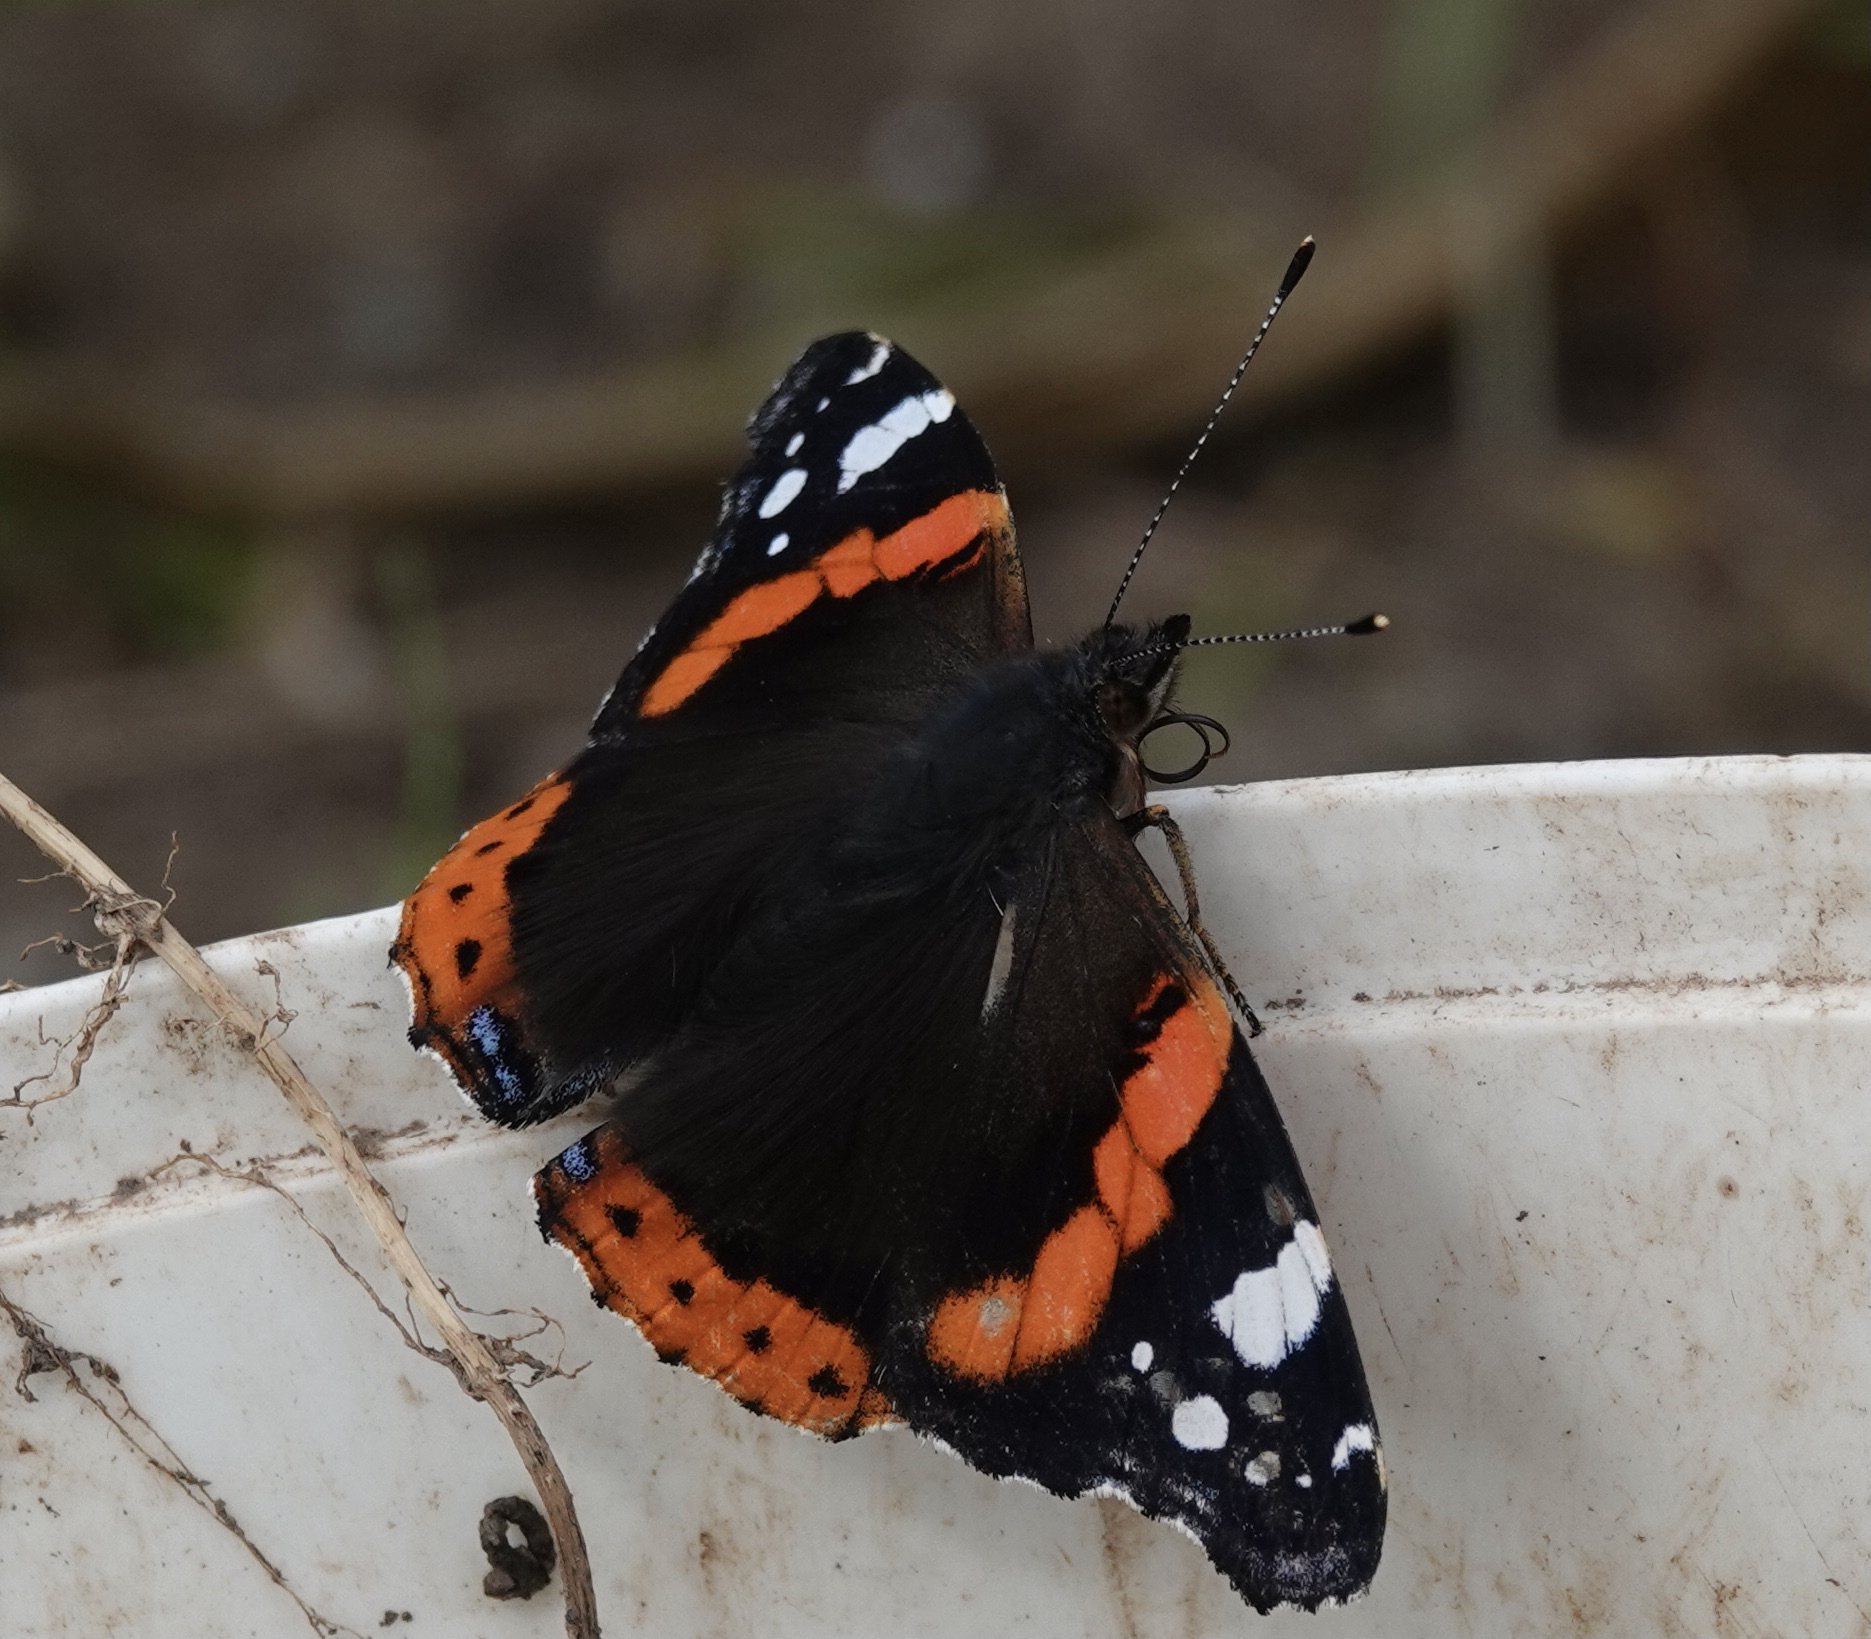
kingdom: Animalia
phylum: Arthropoda
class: Insecta
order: Lepidoptera
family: Nymphalidae
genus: Vanessa
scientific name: Vanessa atalanta
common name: Red admiral
